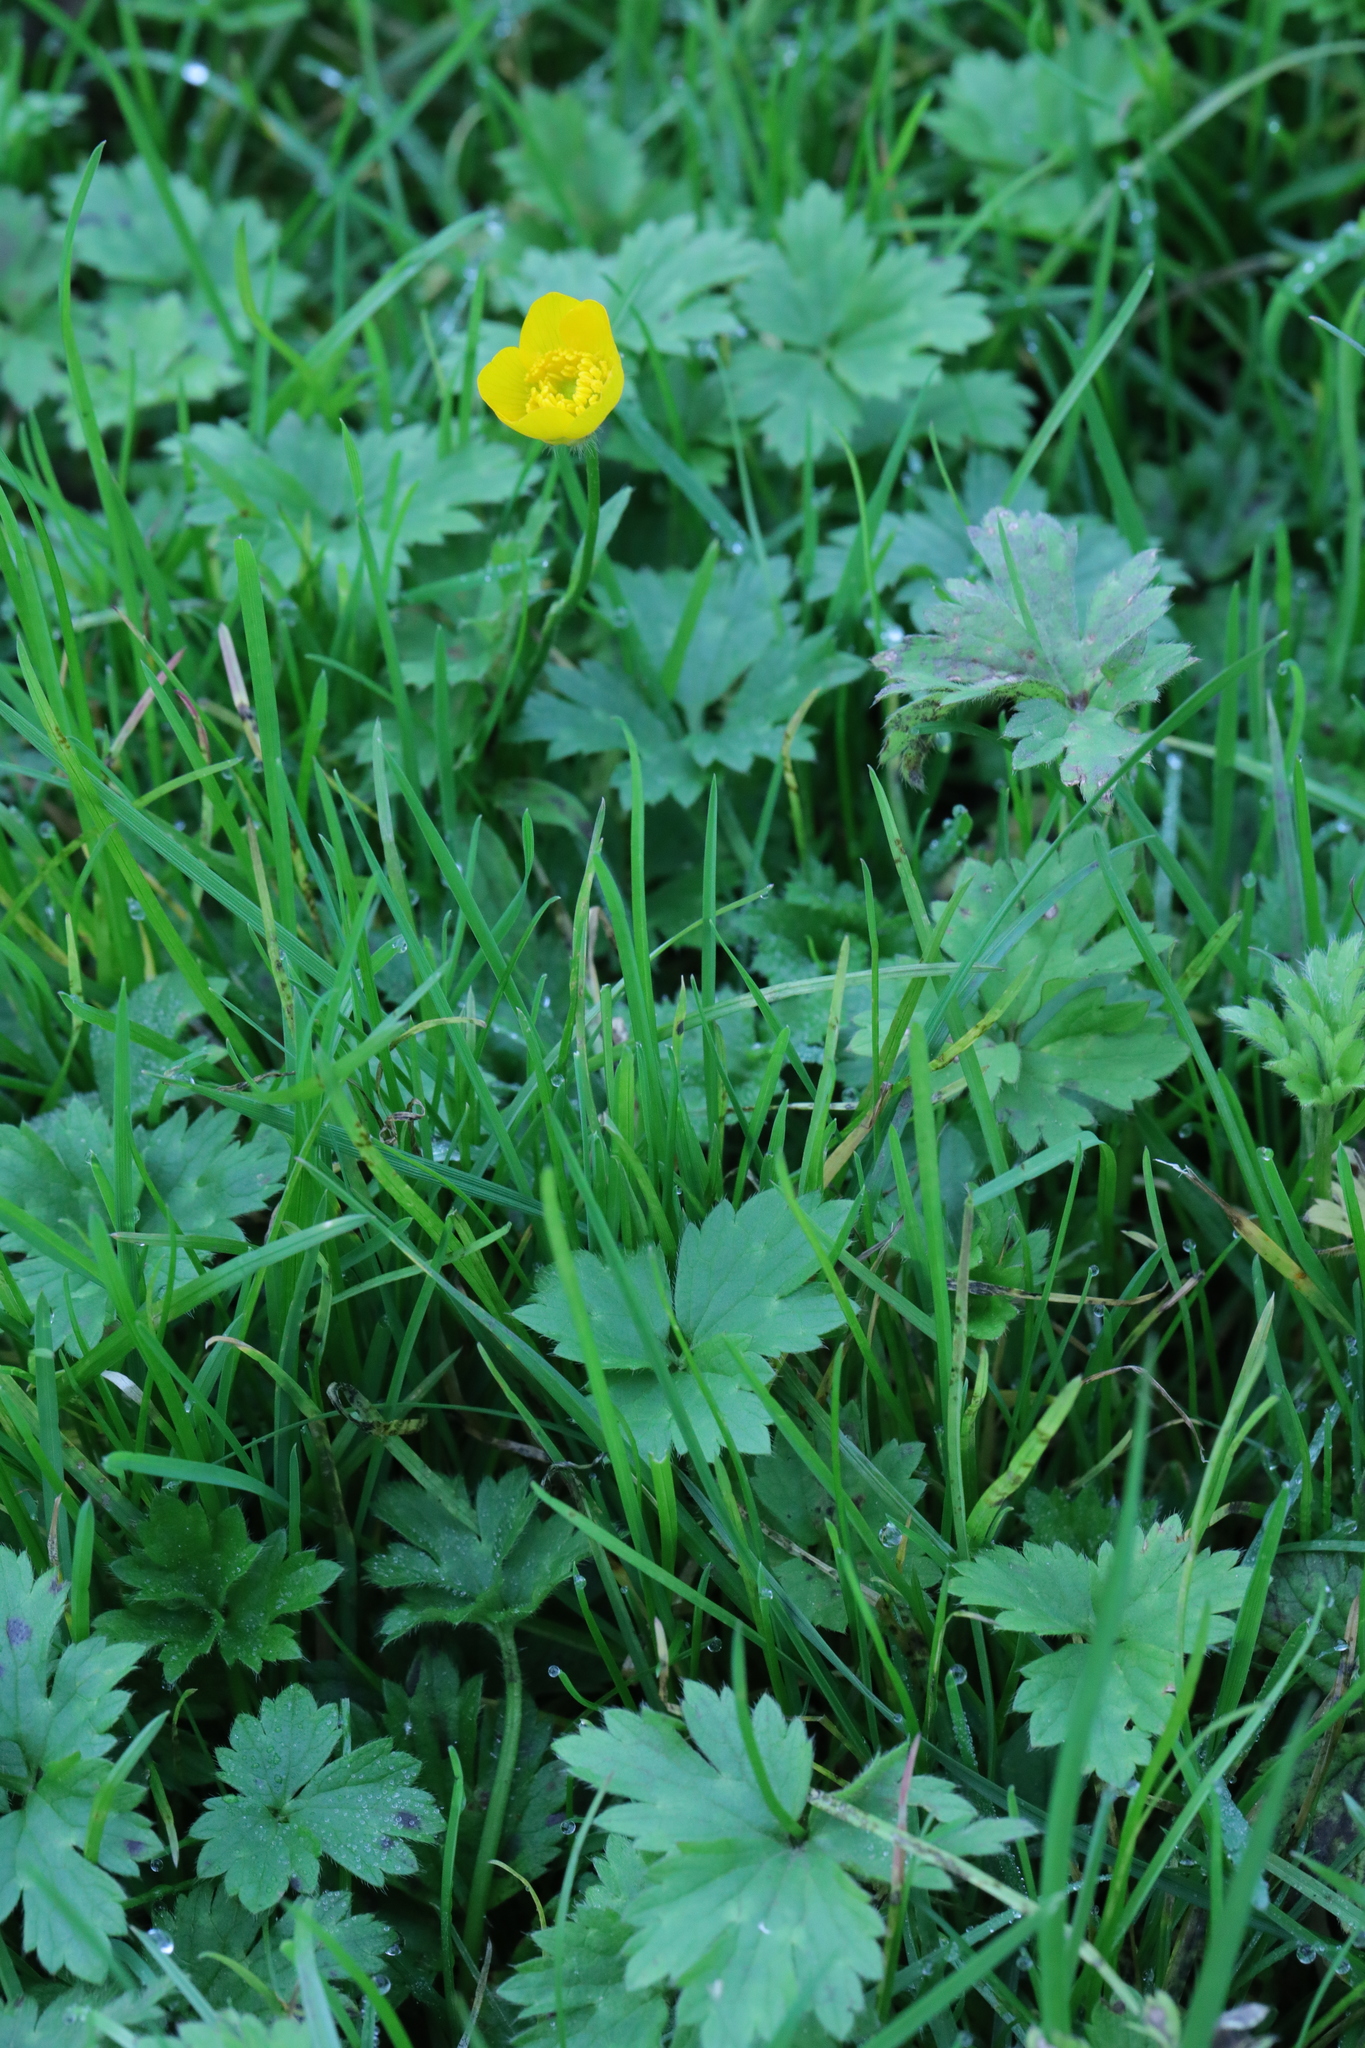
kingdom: Plantae
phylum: Tracheophyta
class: Magnoliopsida
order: Ranunculales
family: Ranunculaceae
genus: Ranunculus
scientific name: Ranunculus repens
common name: Creeping buttercup
